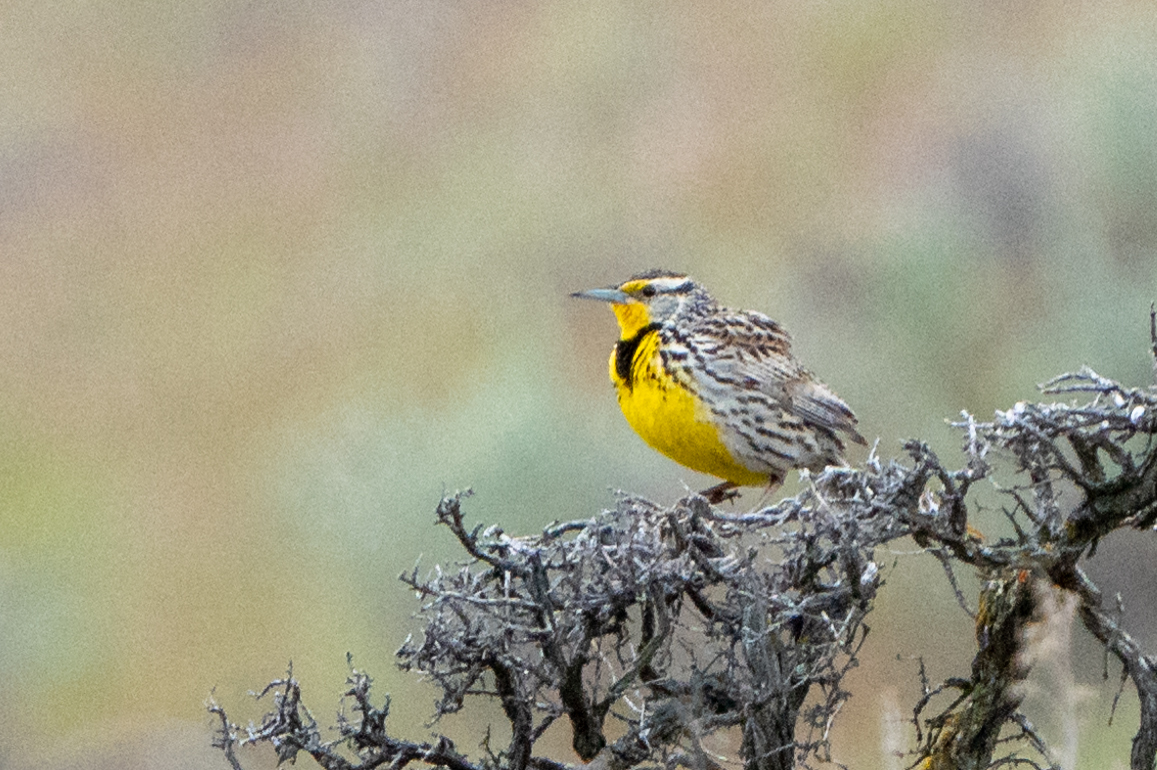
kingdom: Animalia
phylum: Chordata
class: Aves
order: Passeriformes
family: Icteridae
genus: Sturnella
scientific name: Sturnella neglecta
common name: Western meadowlark
